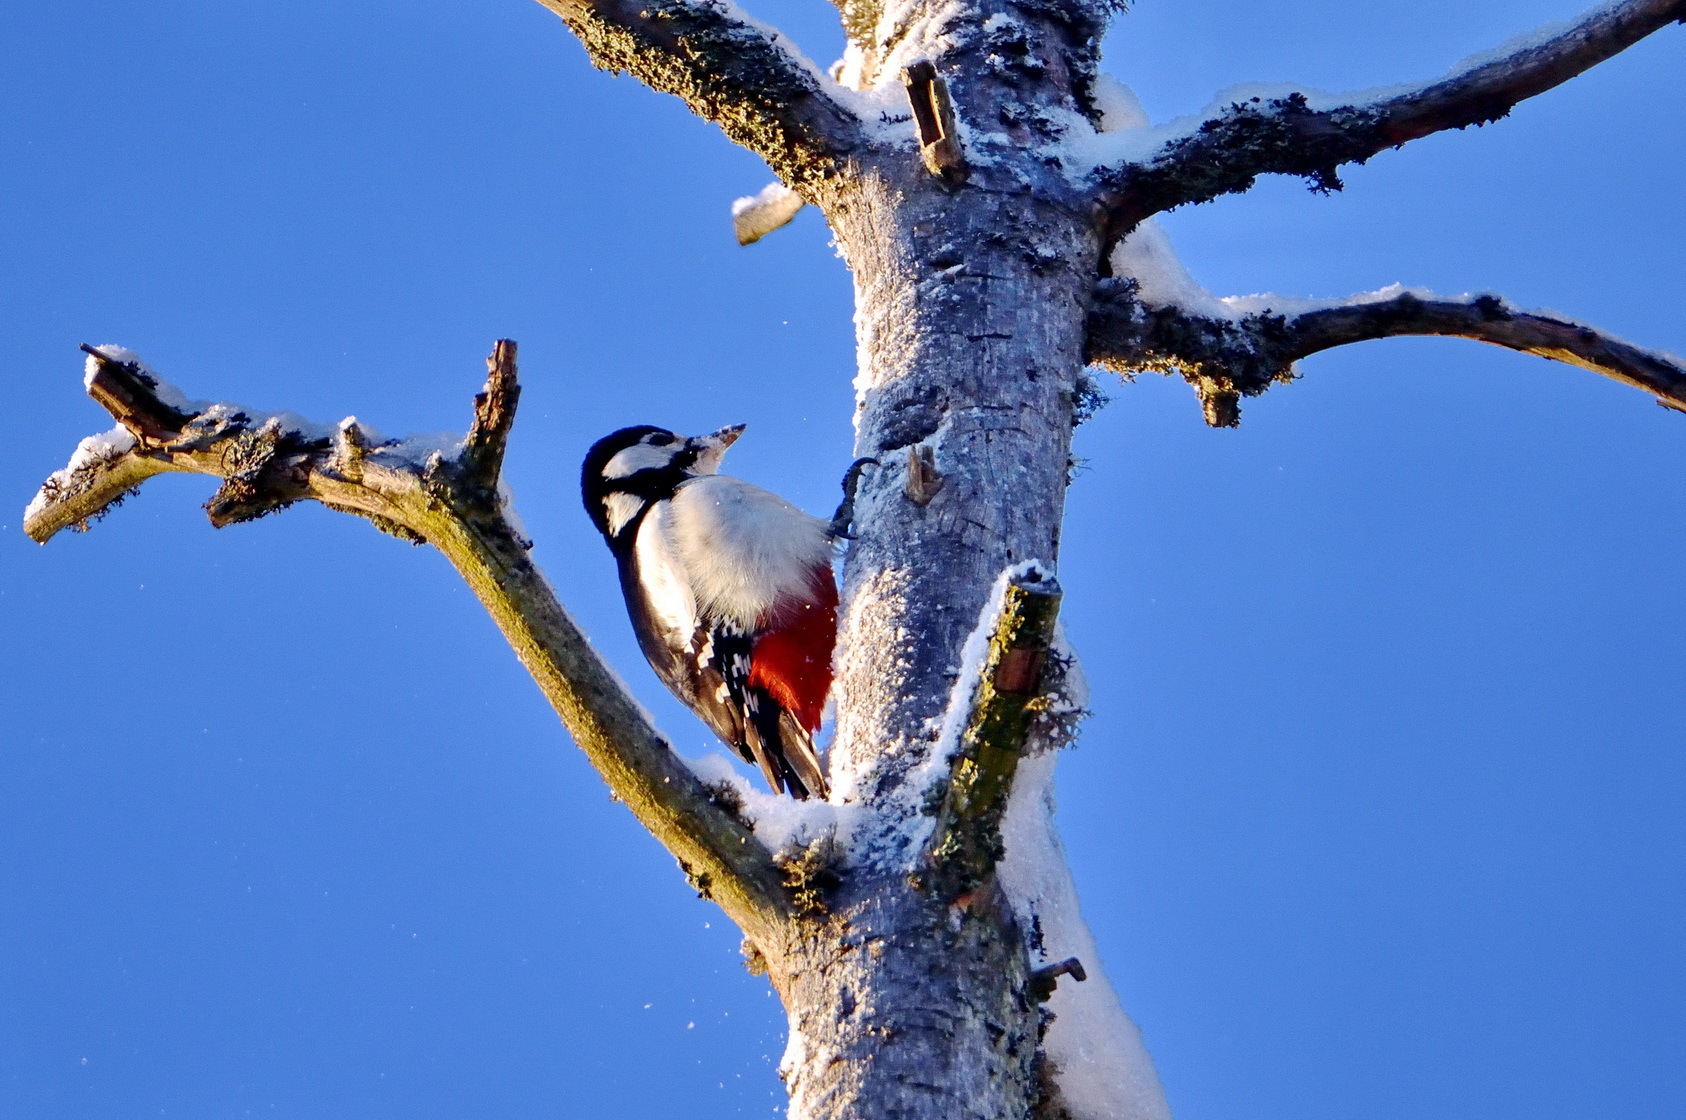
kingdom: Animalia
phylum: Chordata
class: Aves
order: Piciformes
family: Picidae
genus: Dendrocopos
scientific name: Dendrocopos major
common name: Great spotted woodpecker
